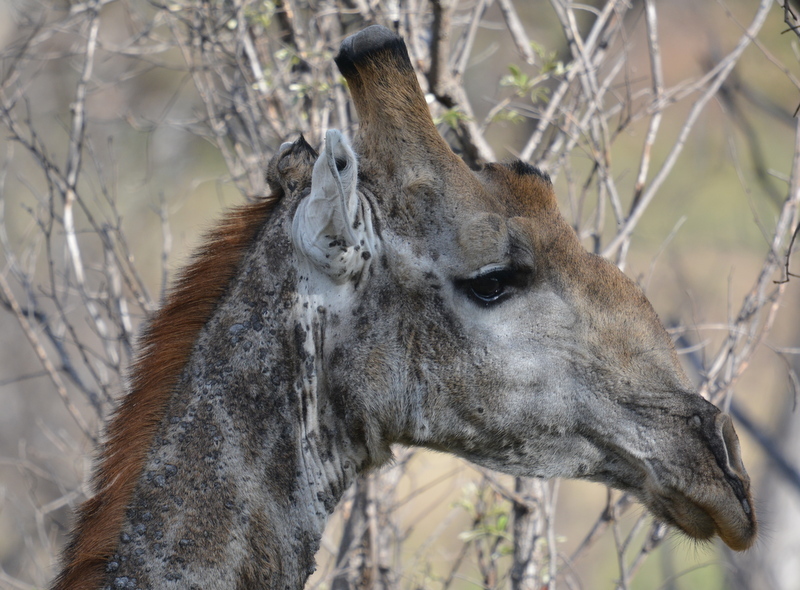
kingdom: Viruses
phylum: Cossaviricota
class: Papovaviricetes
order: Zurhausenvirales
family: Papillomaviridae
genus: Deltapapillomavirus
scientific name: Deltapapillomavirus
